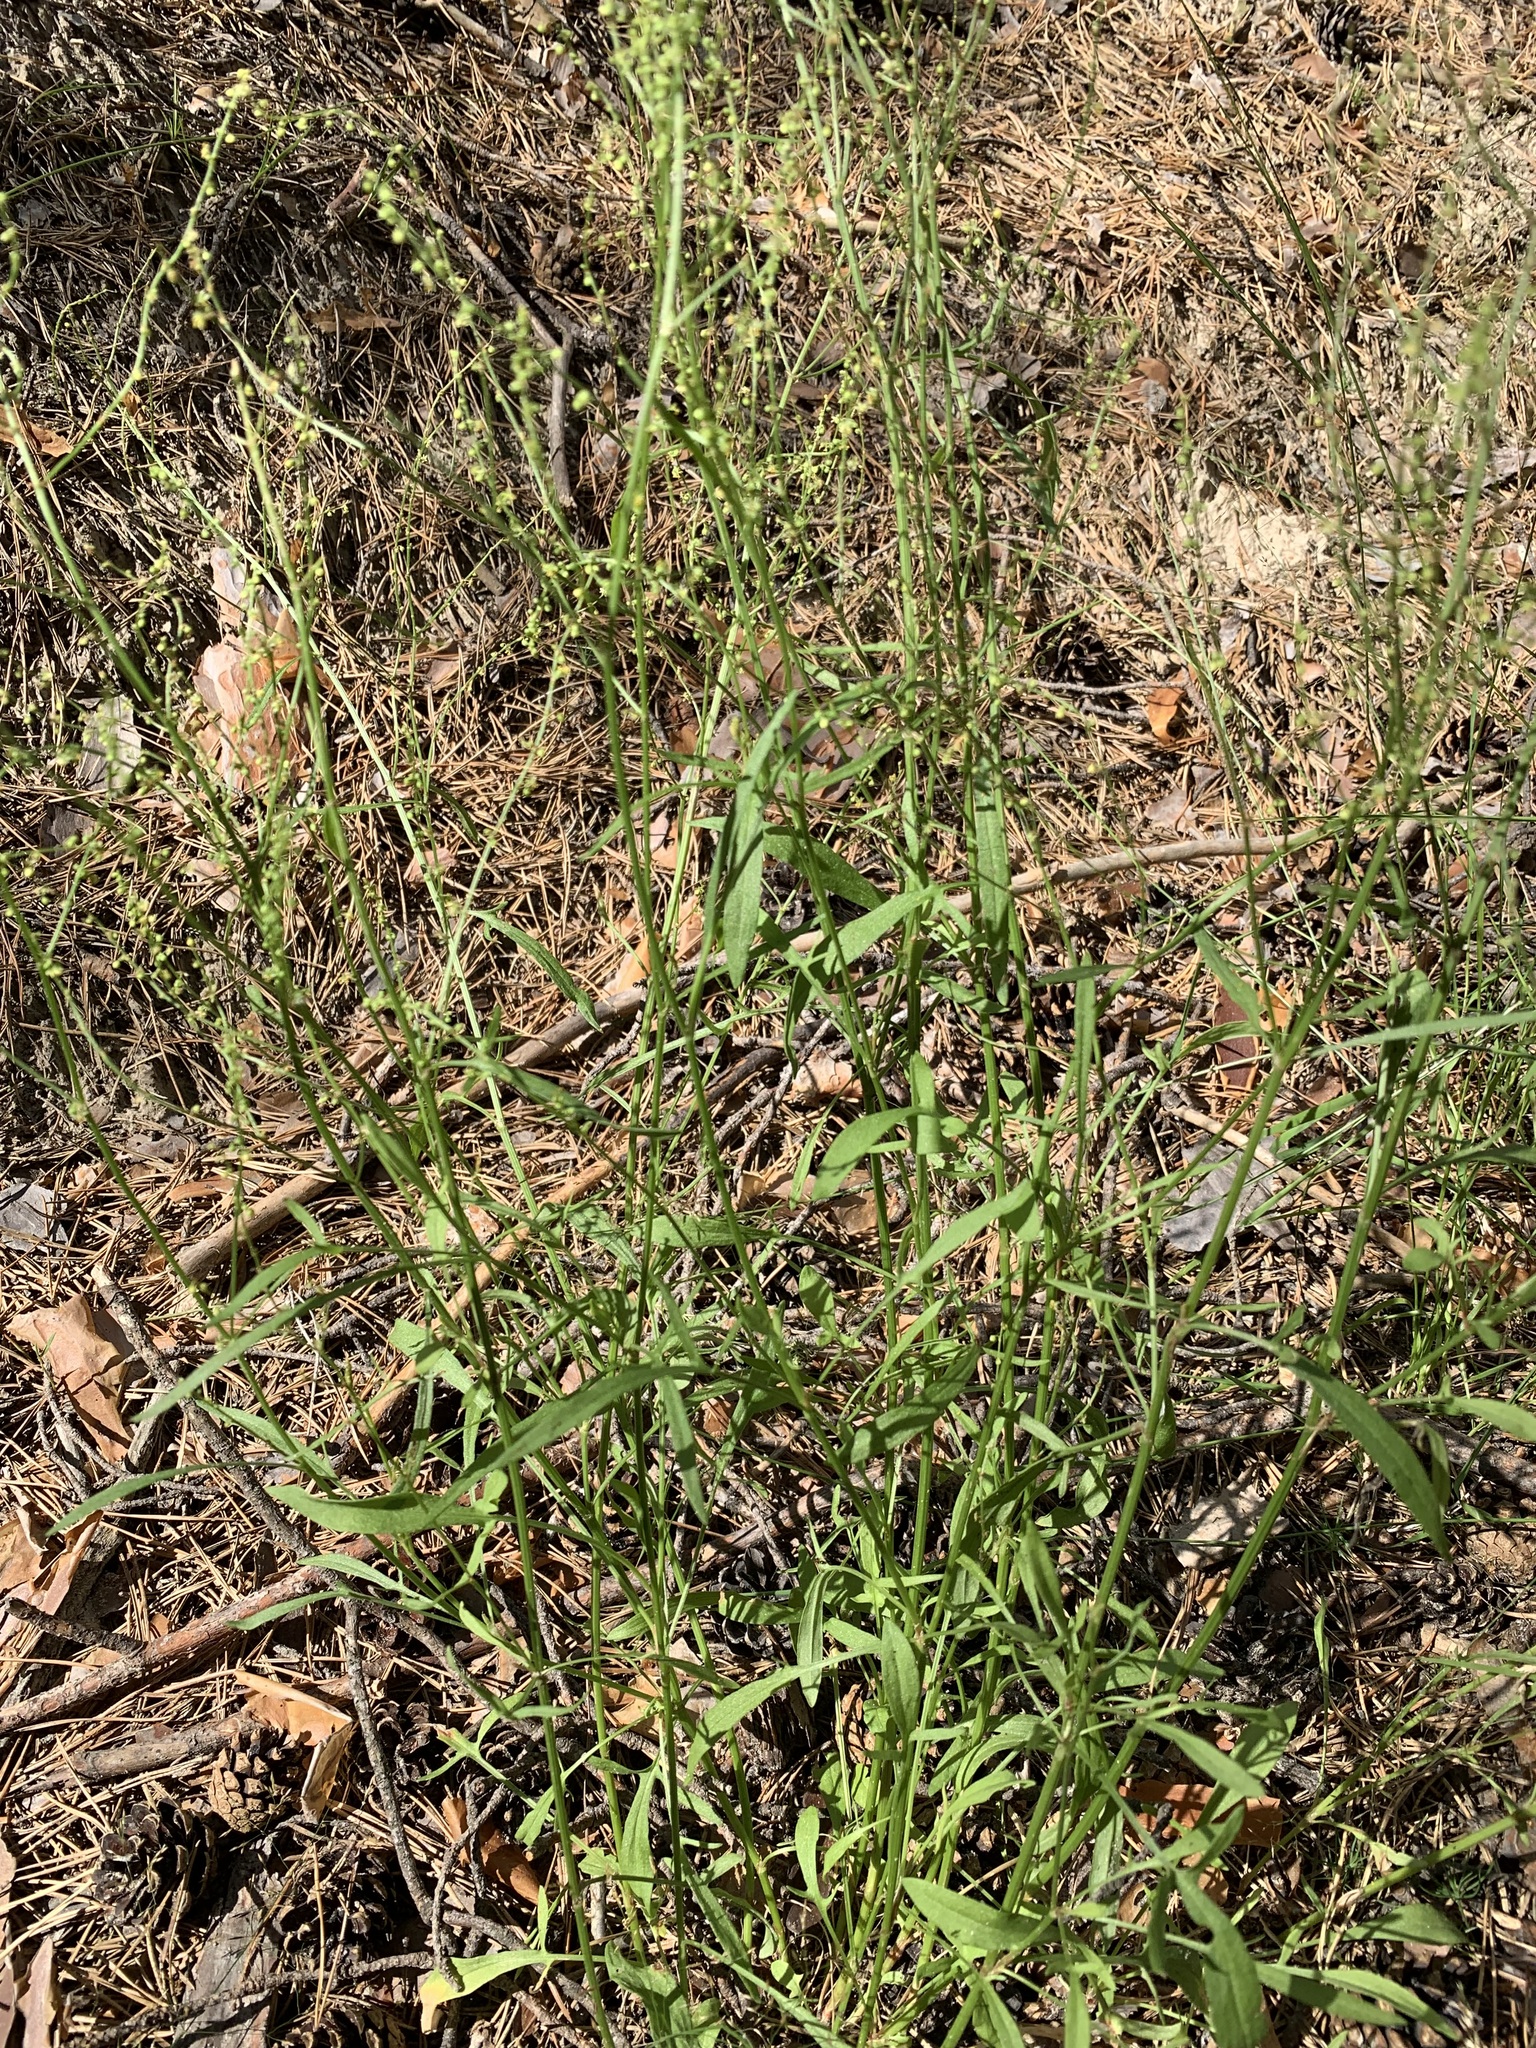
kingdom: Plantae
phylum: Tracheophyta
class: Magnoliopsida
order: Caryophyllales
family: Polygonaceae
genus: Rumex
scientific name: Rumex acetosella
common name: Common sheep sorrel
